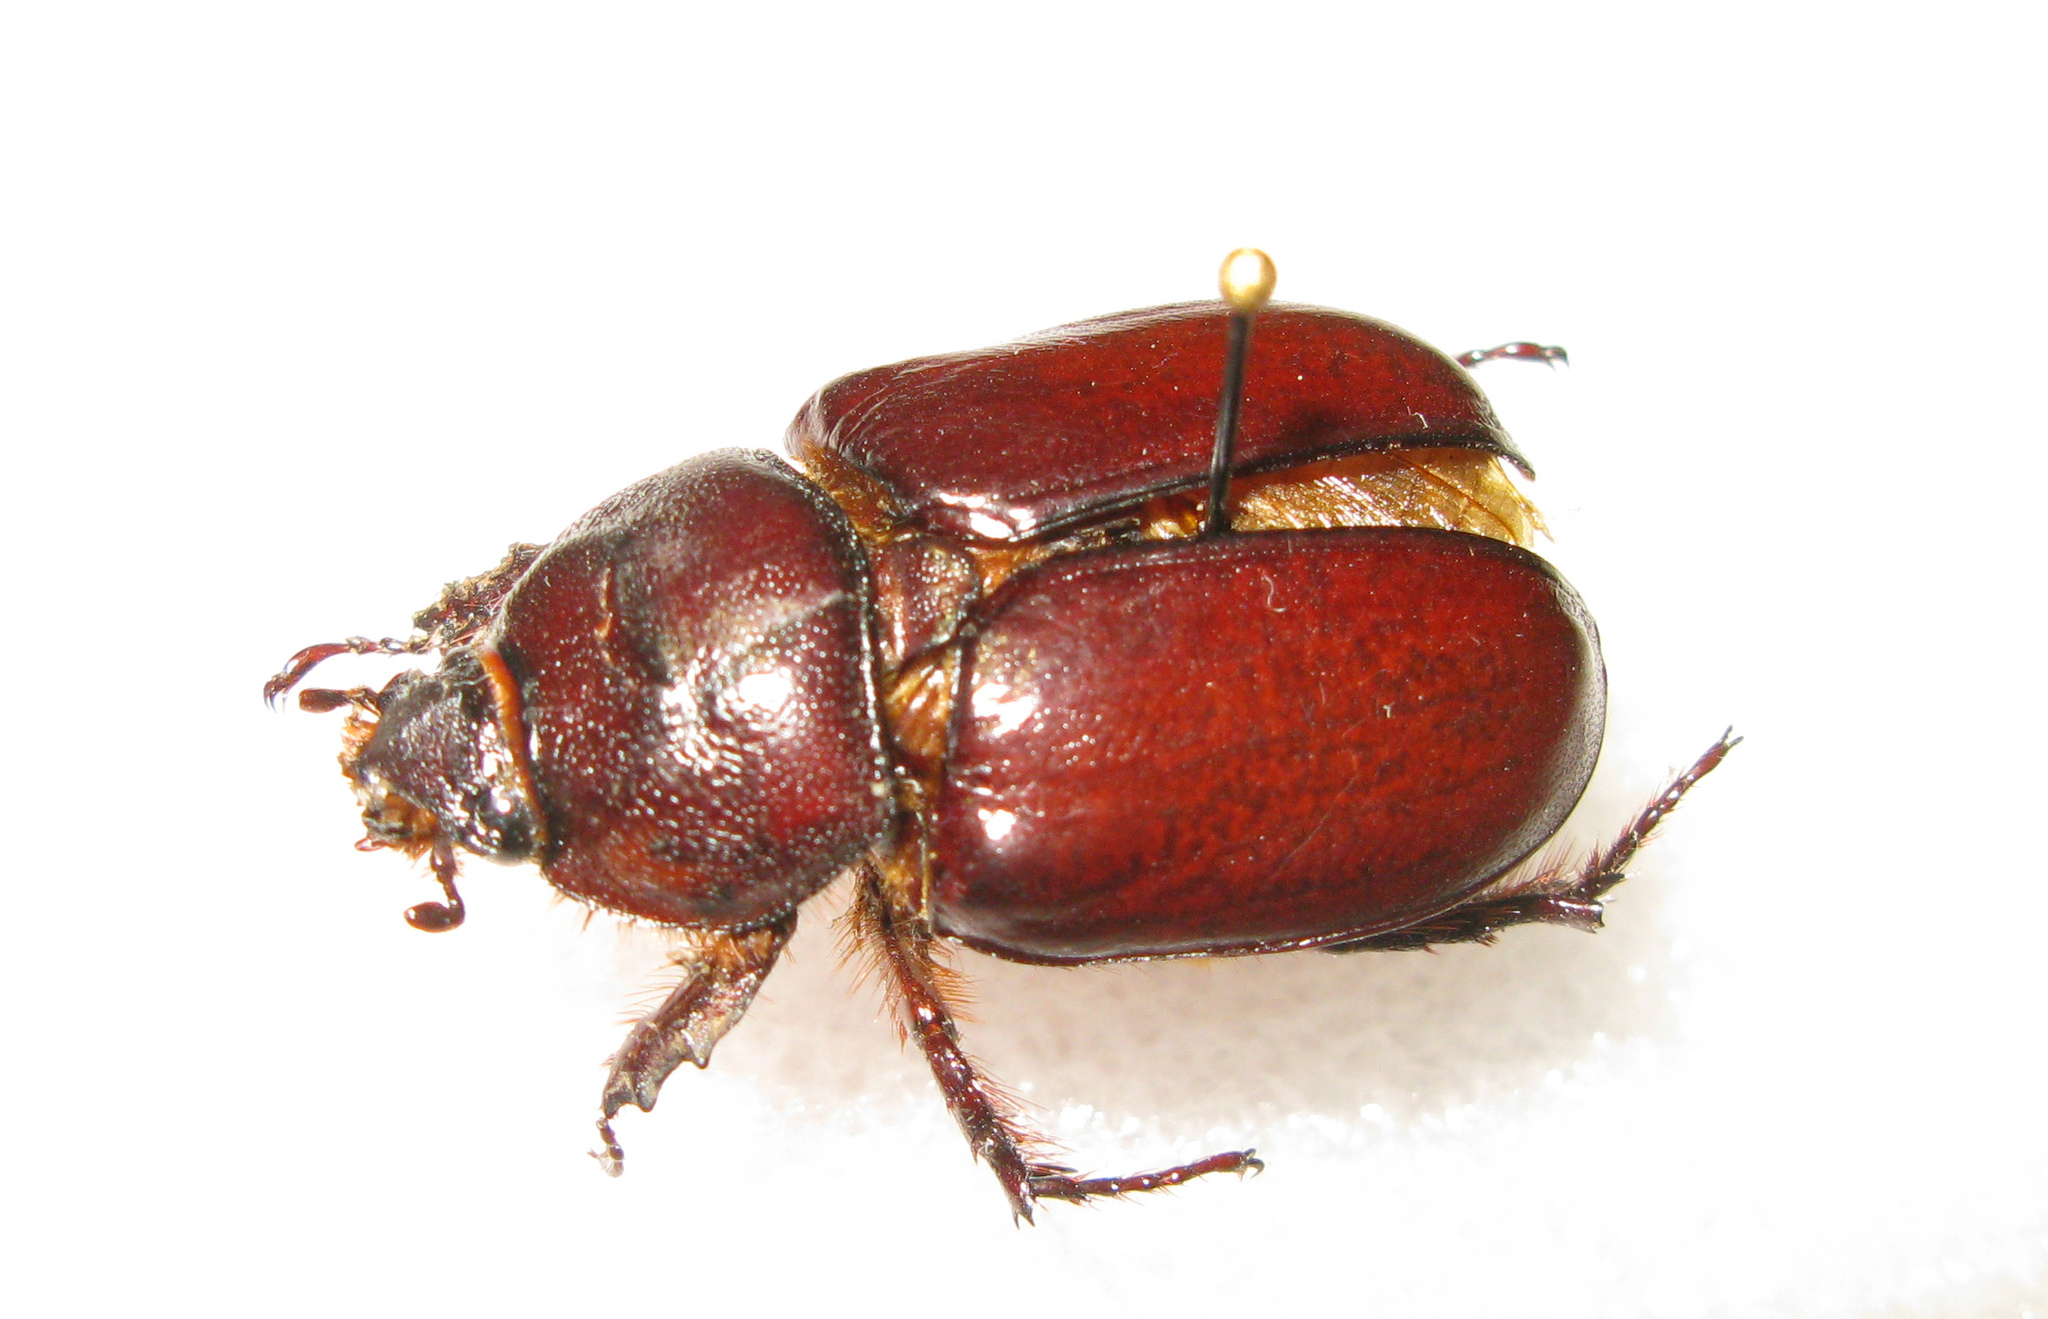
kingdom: Animalia
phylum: Arthropoda
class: Insecta
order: Coleoptera
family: Scarabaeidae
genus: Oryctes
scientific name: Oryctes nasicornis
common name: European rhinoceros beetle
